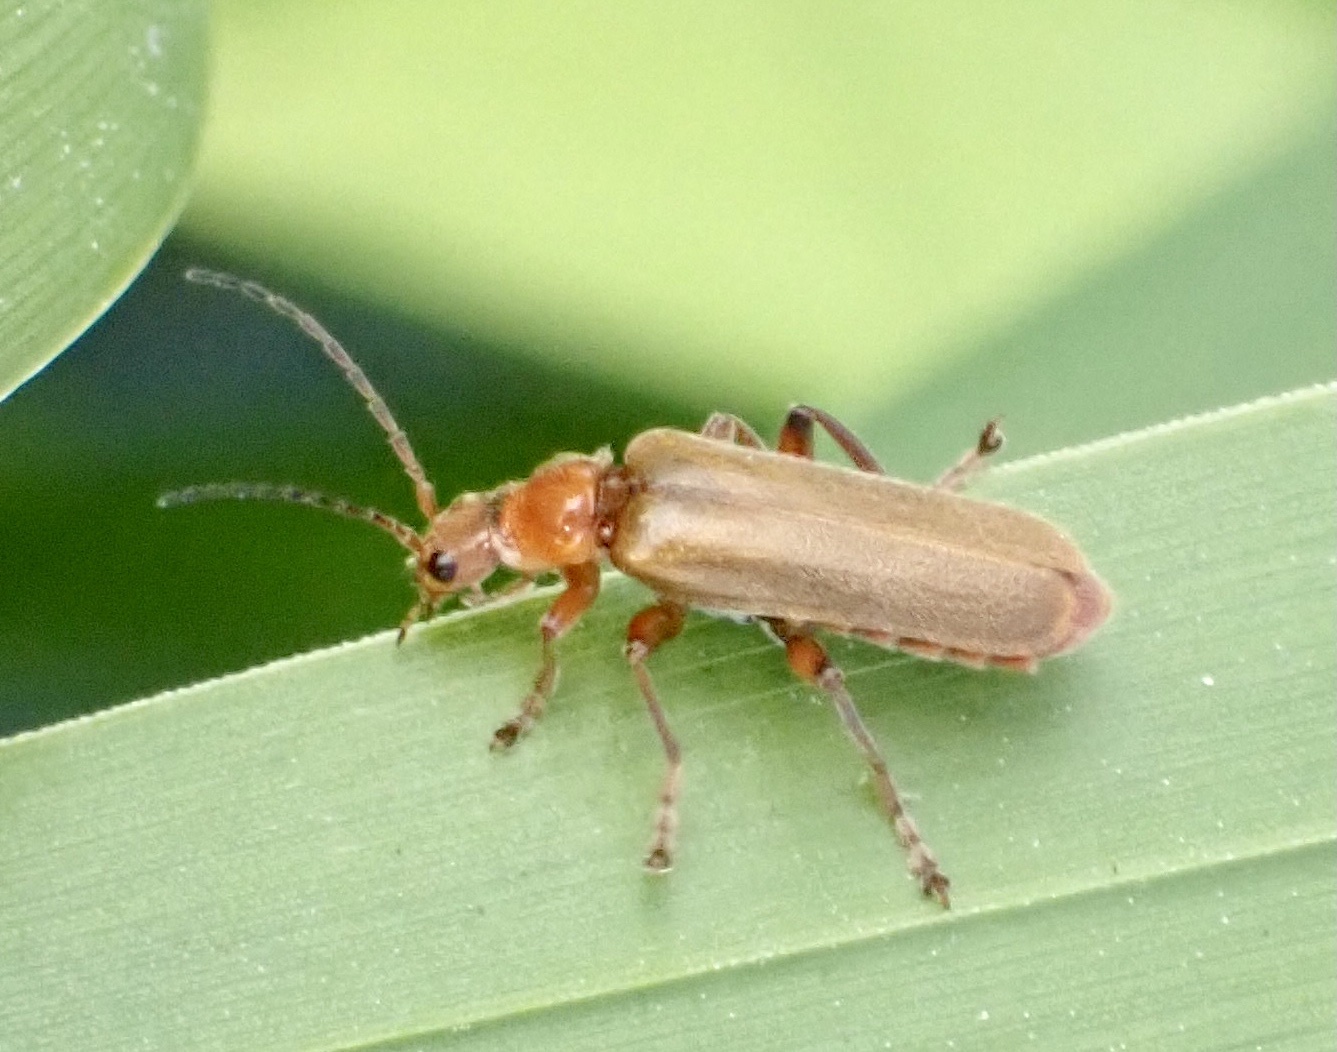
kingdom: Animalia
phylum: Arthropoda
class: Insecta
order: Coleoptera
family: Cantharidae
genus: Cantharis
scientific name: Cantharis livida
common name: Livid soldier beetle
